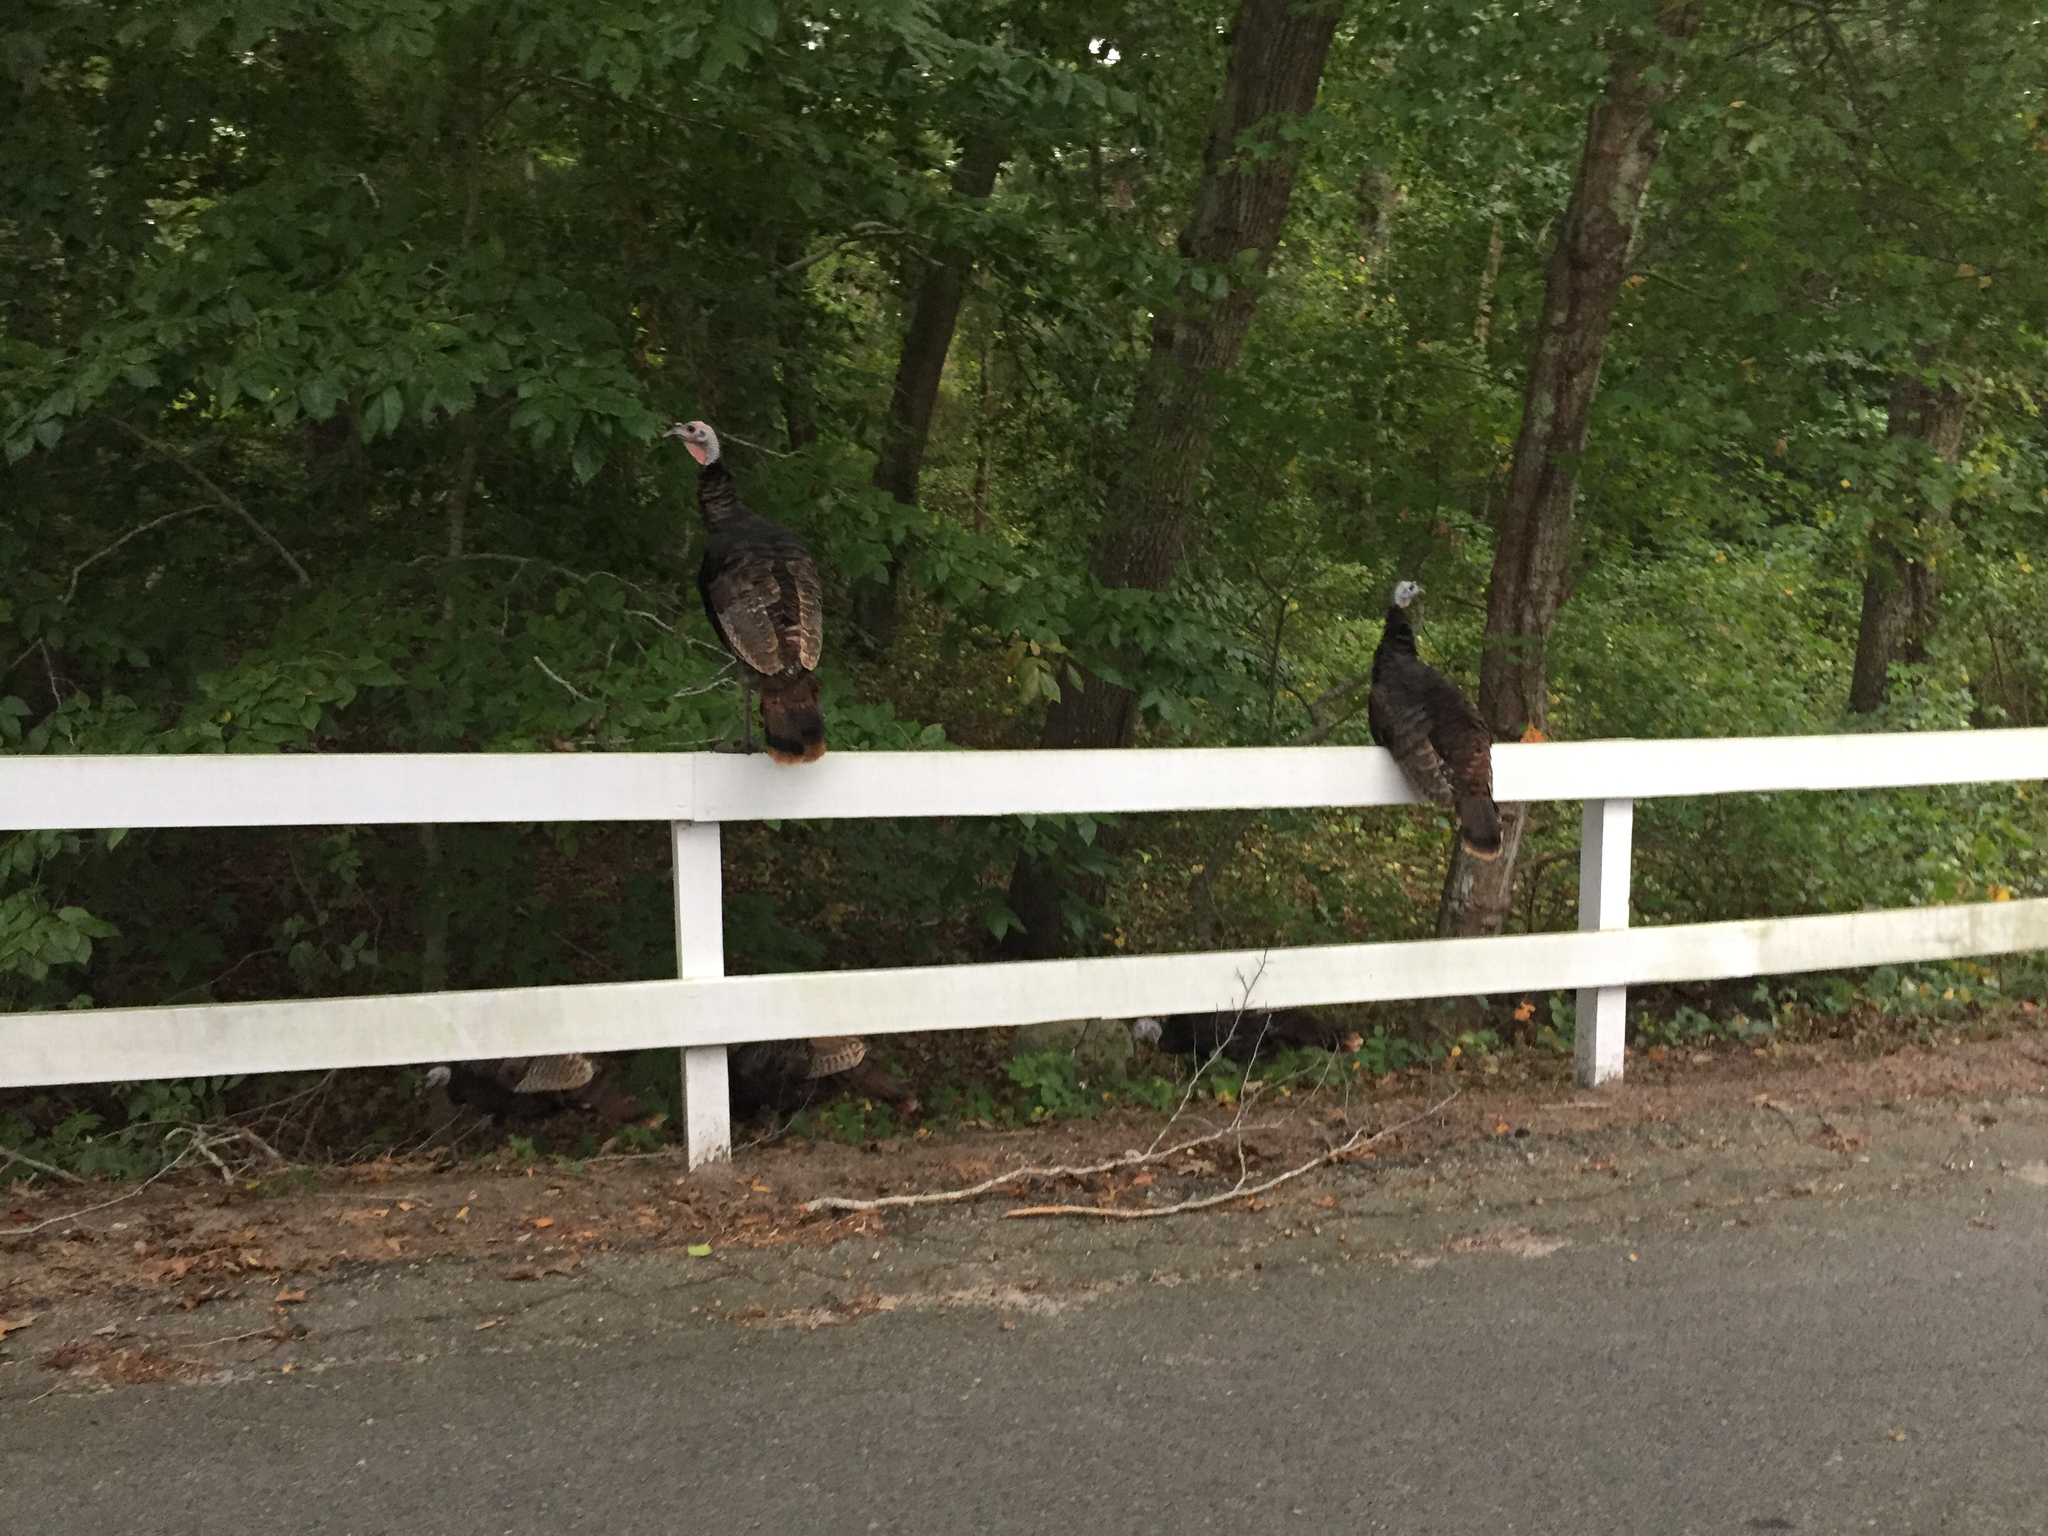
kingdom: Animalia
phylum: Chordata
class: Aves
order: Galliformes
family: Phasianidae
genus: Meleagris
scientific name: Meleagris gallopavo
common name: Wild turkey
